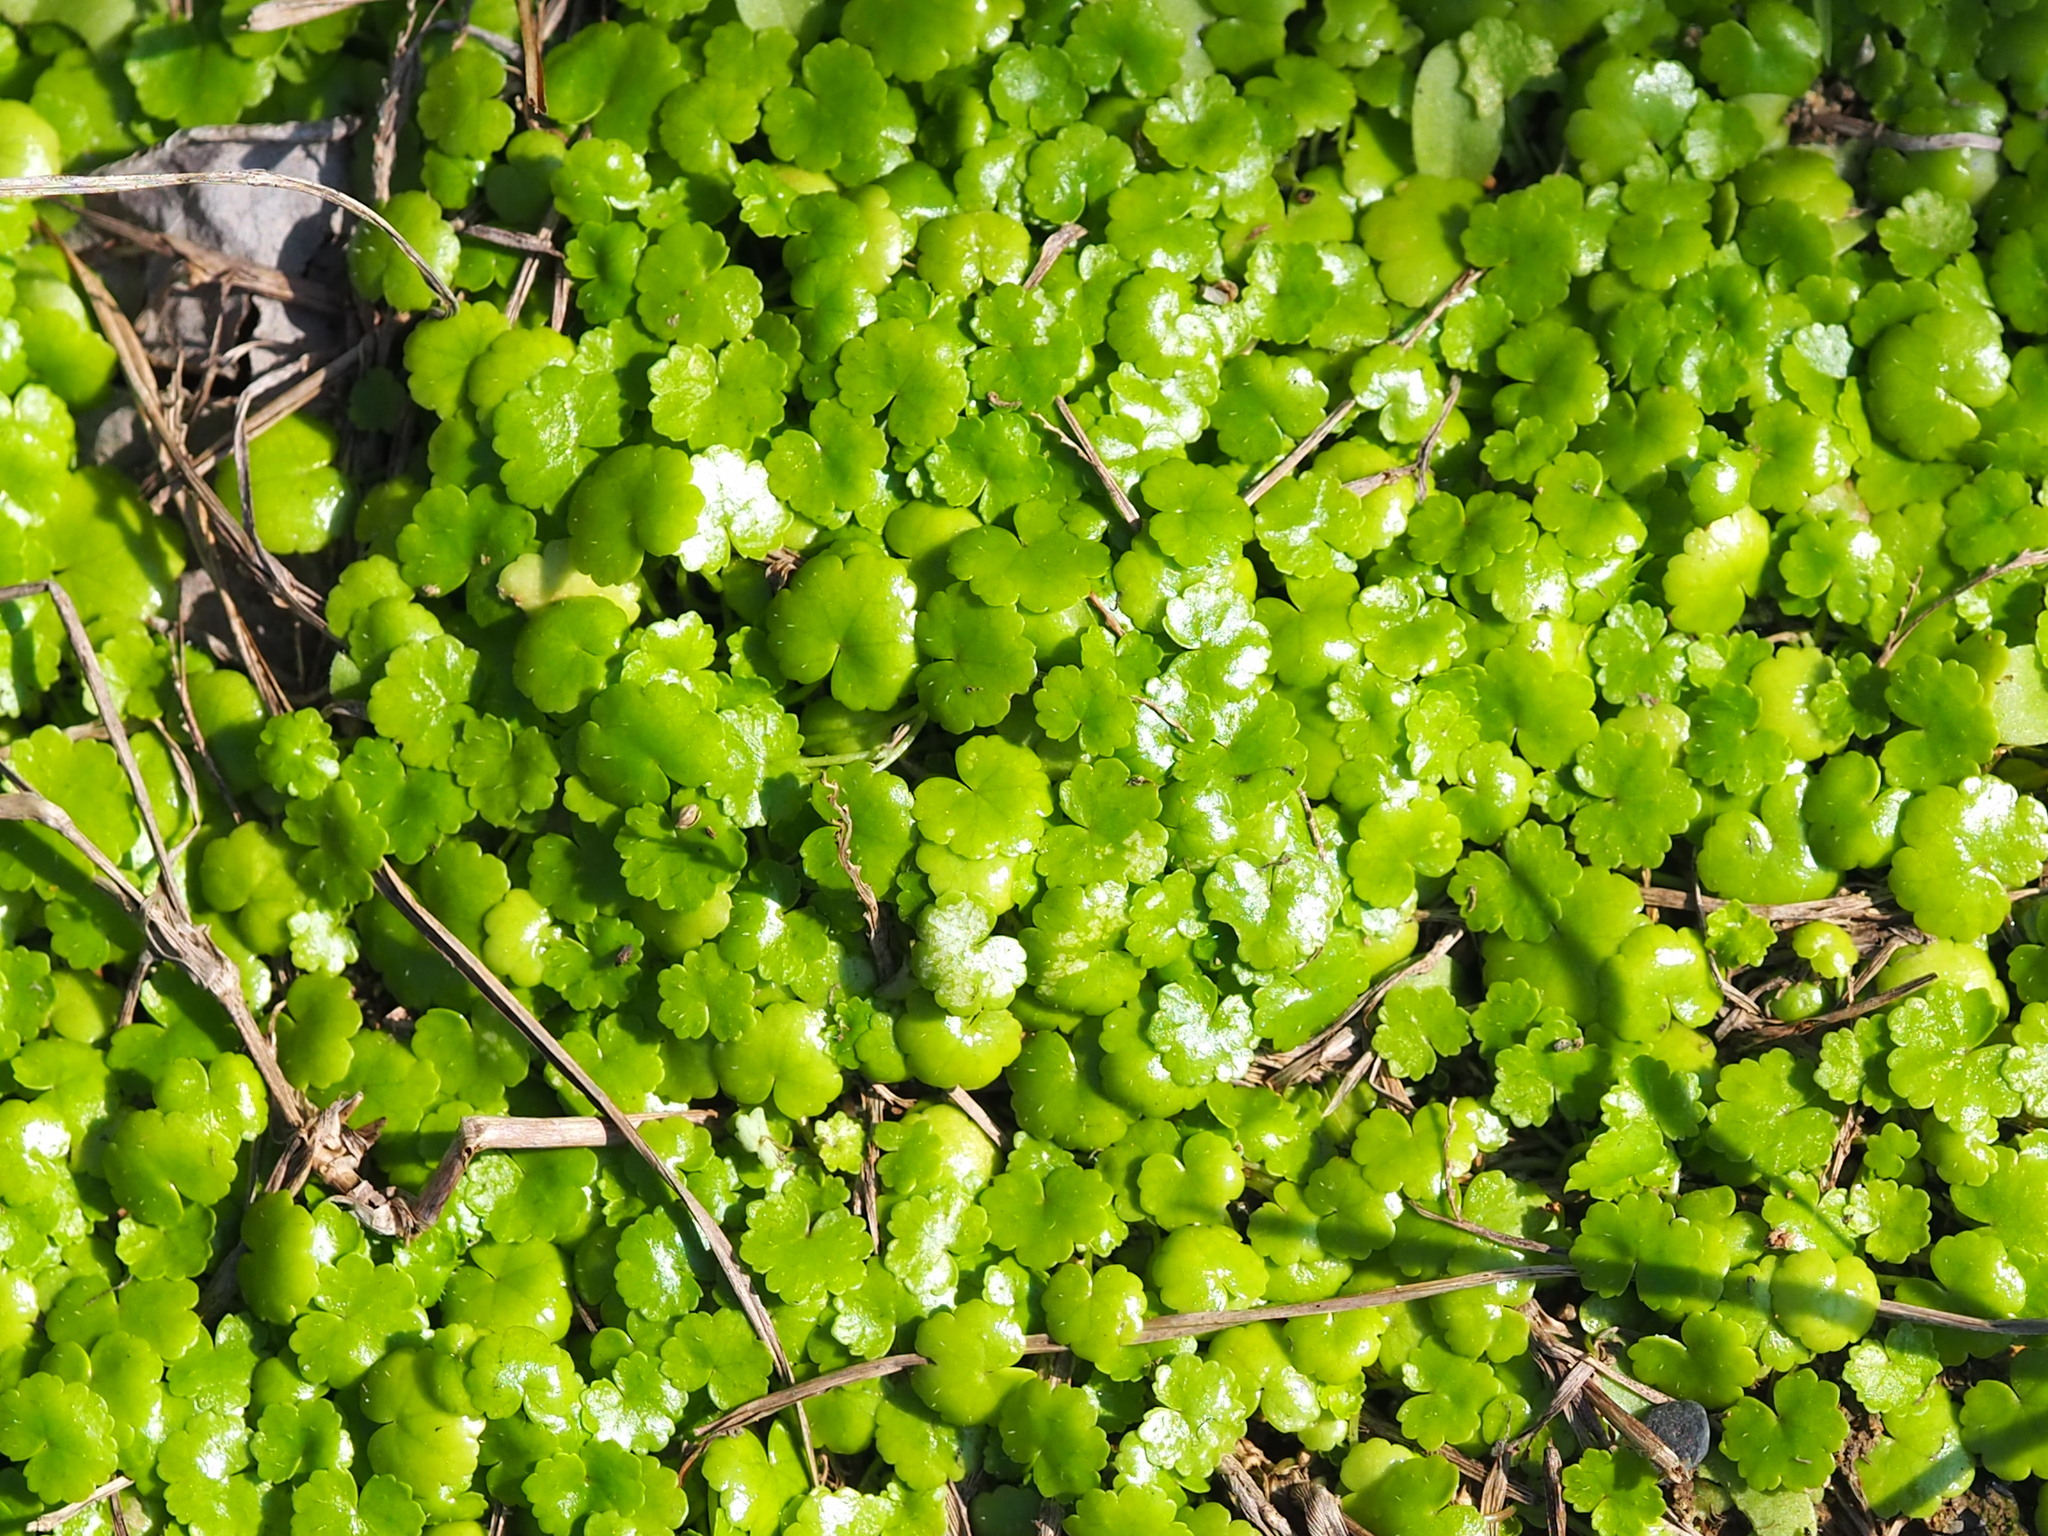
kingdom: Plantae
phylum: Tracheophyta
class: Magnoliopsida
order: Apiales
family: Araliaceae
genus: Hydrocotyle
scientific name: Hydrocotyle sibthorpioides
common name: Lawn marshpennywort
